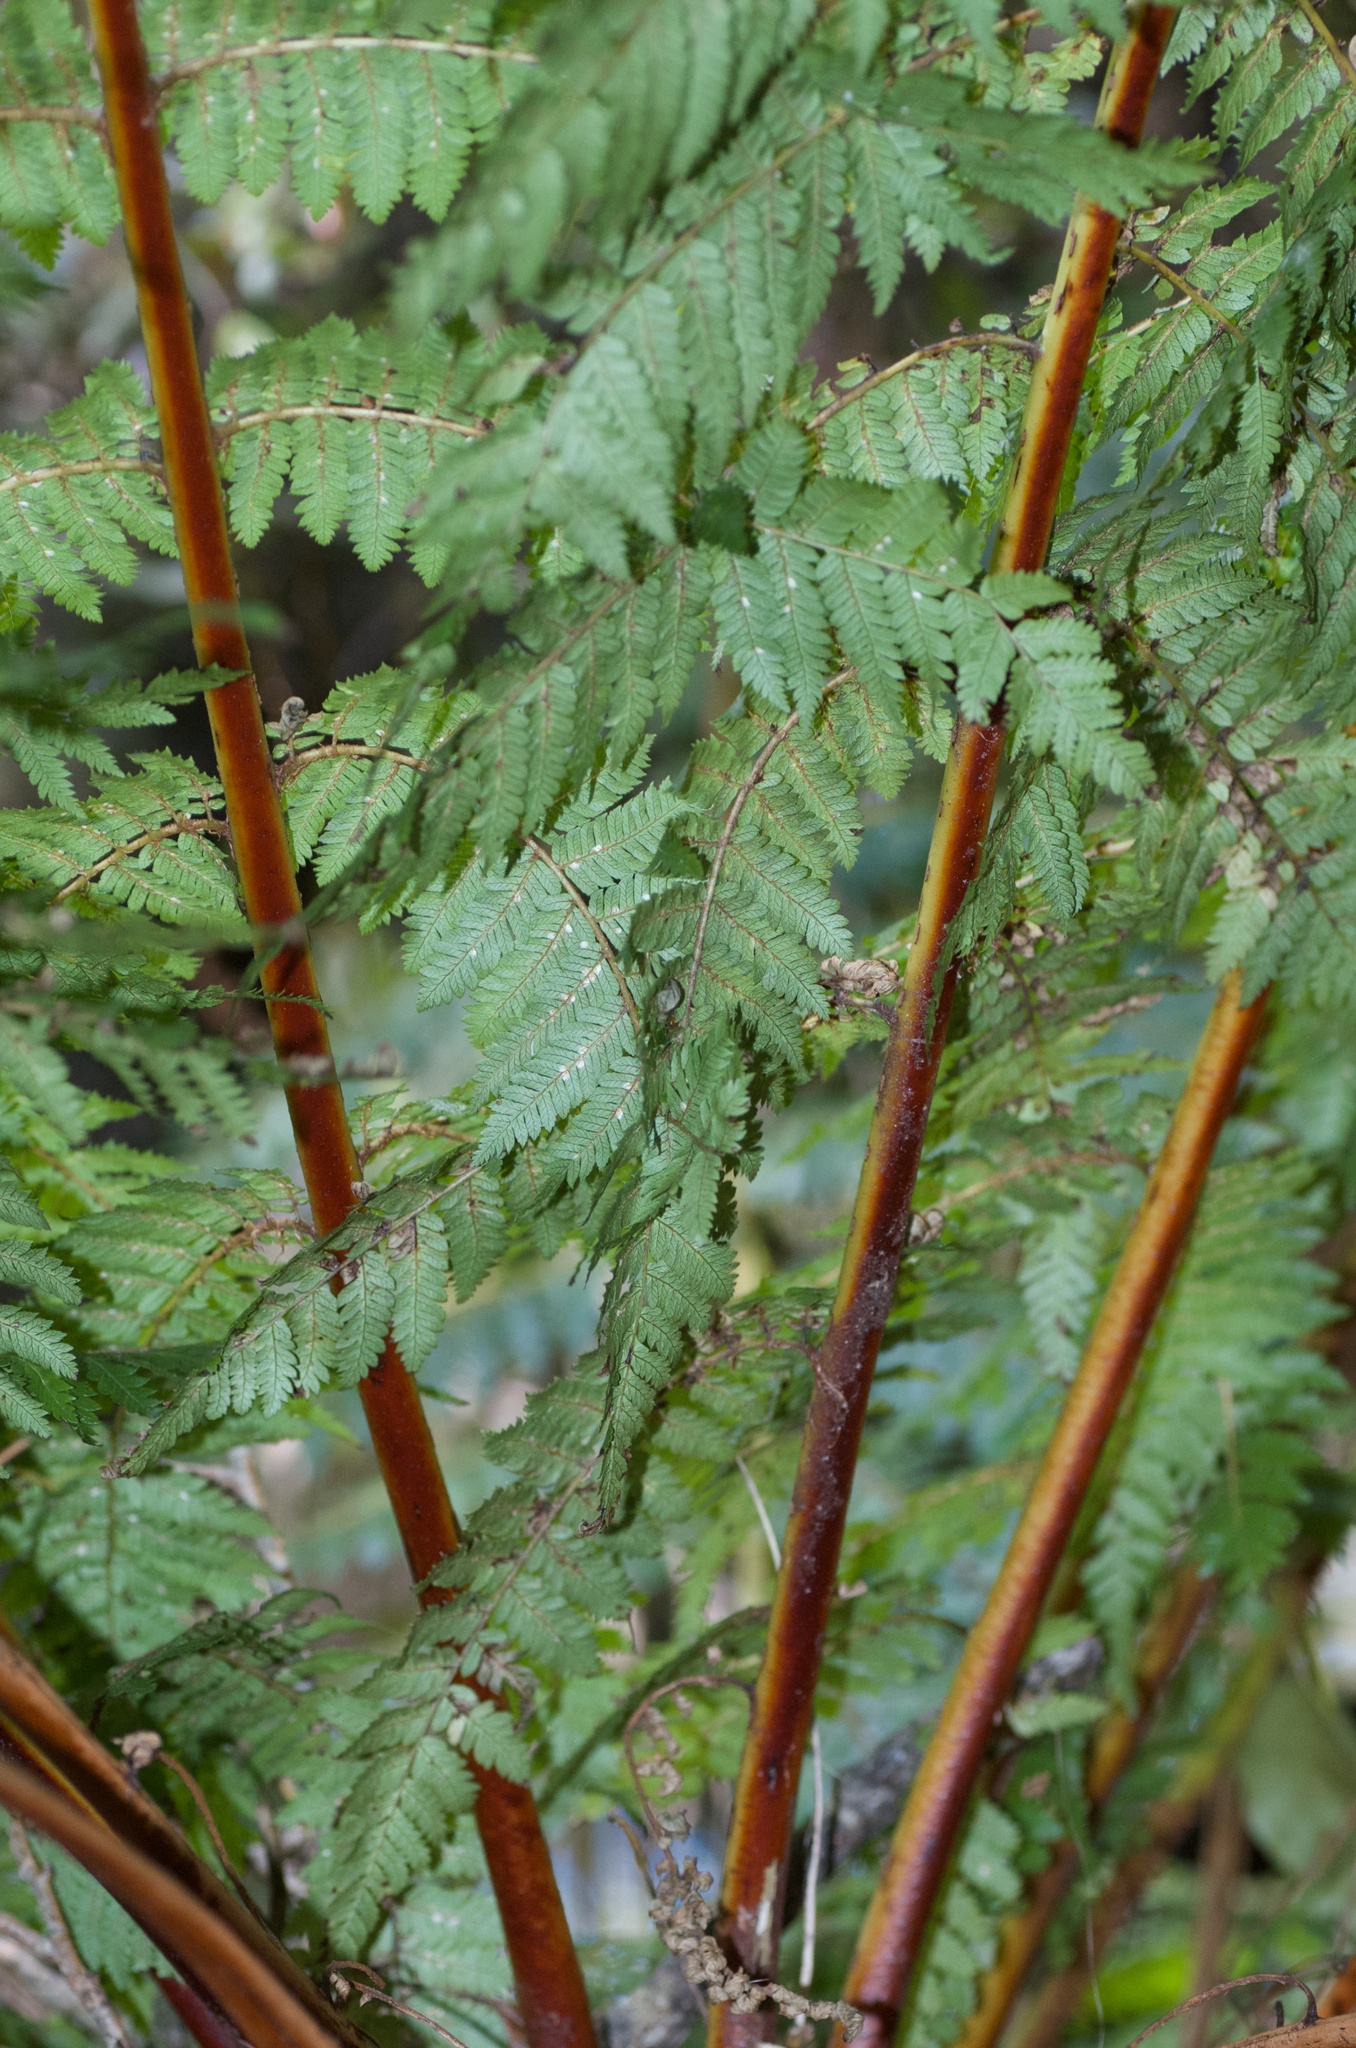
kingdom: Plantae
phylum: Tracheophyta
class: Polypodiopsida
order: Cyatheales
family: Cyatheaceae
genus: Alsophila
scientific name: Alsophila smithii
